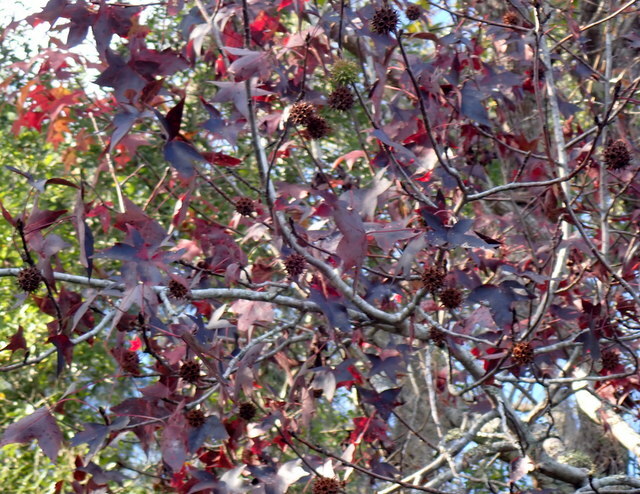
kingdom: Plantae
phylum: Tracheophyta
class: Magnoliopsida
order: Saxifragales
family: Altingiaceae
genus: Liquidambar
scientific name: Liquidambar styraciflua
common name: Sweet gum
